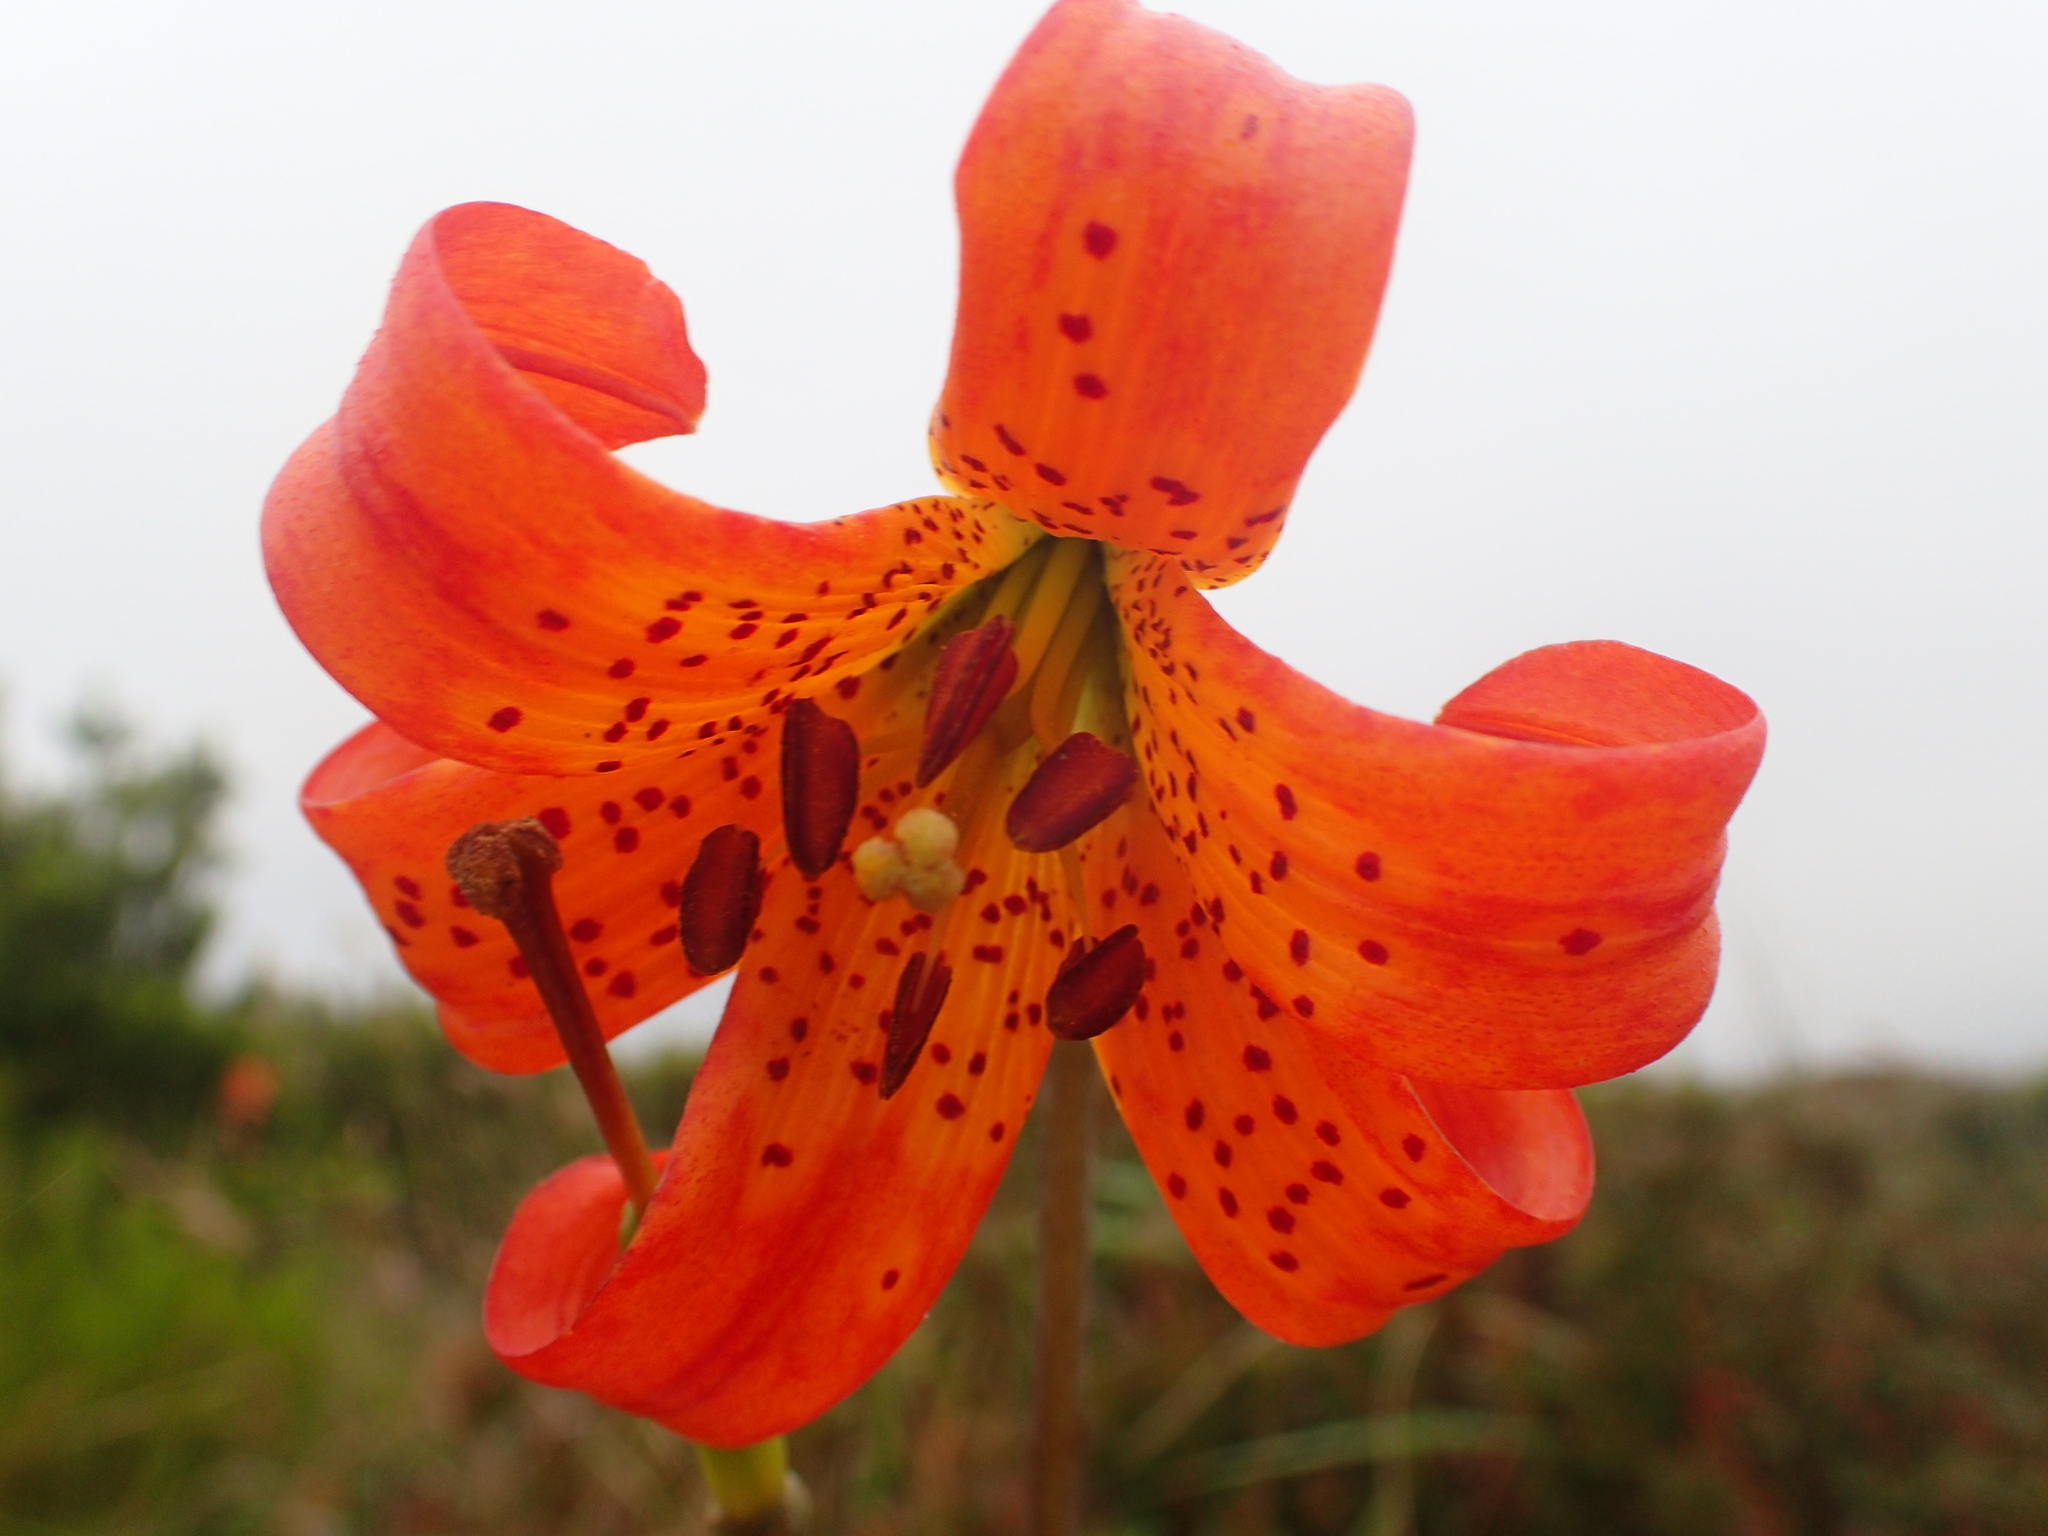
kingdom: Plantae
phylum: Tracheophyta
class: Liliopsida
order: Liliales
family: Liliaceae
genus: Lilium
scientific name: Lilium maritimum
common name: Coastal lily
